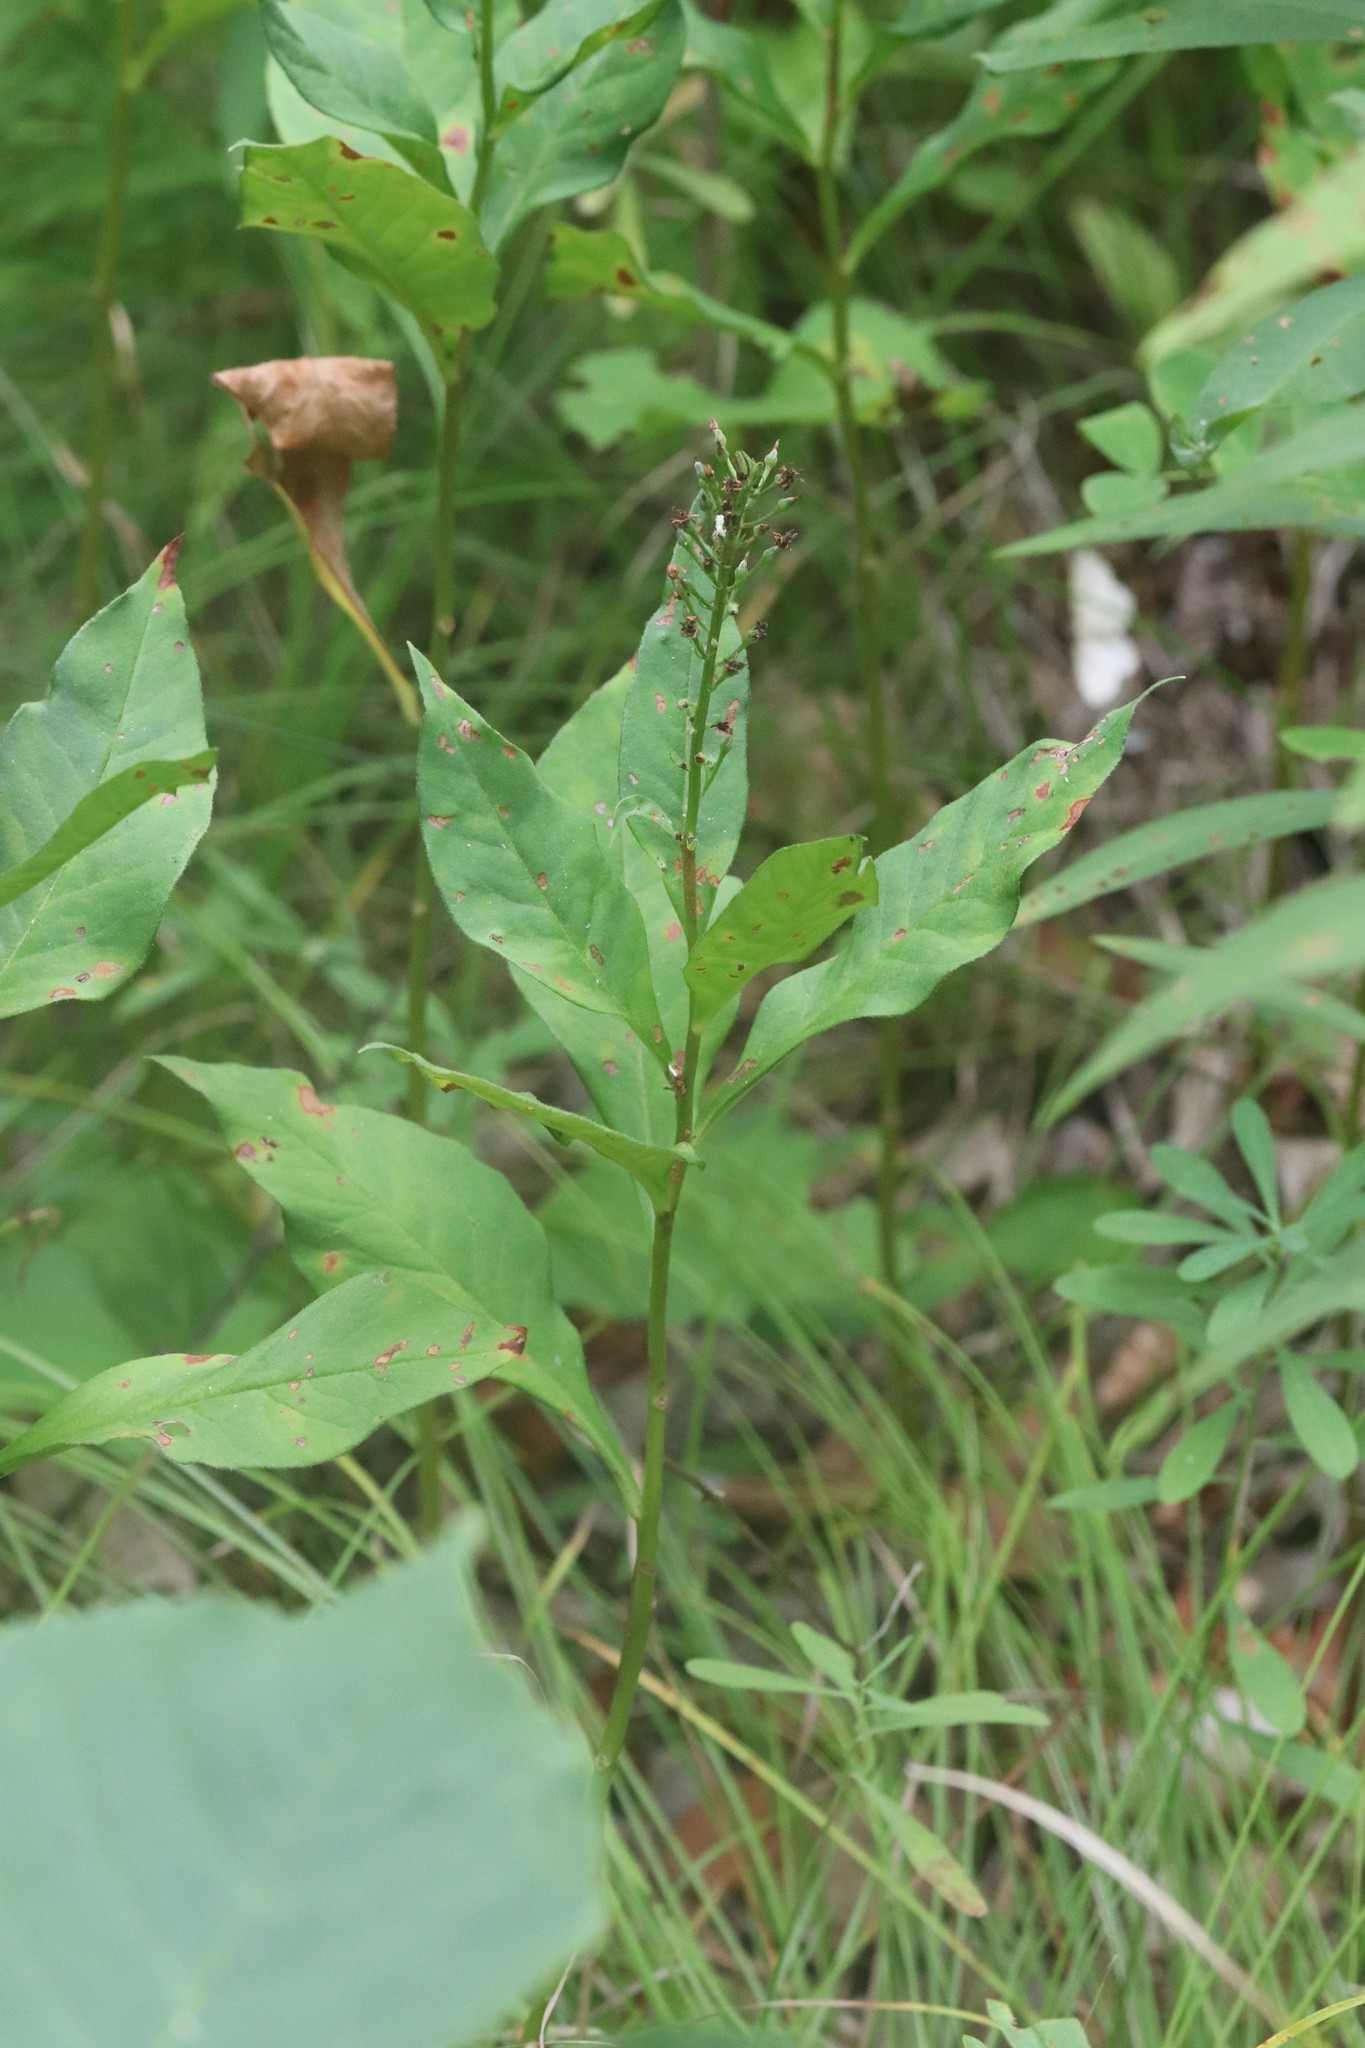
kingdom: Plantae
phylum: Tracheophyta
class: Magnoliopsida
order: Ericales
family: Primulaceae
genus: Lysimachia
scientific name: Lysimachia clethroides
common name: Gooseneck loosestrife
